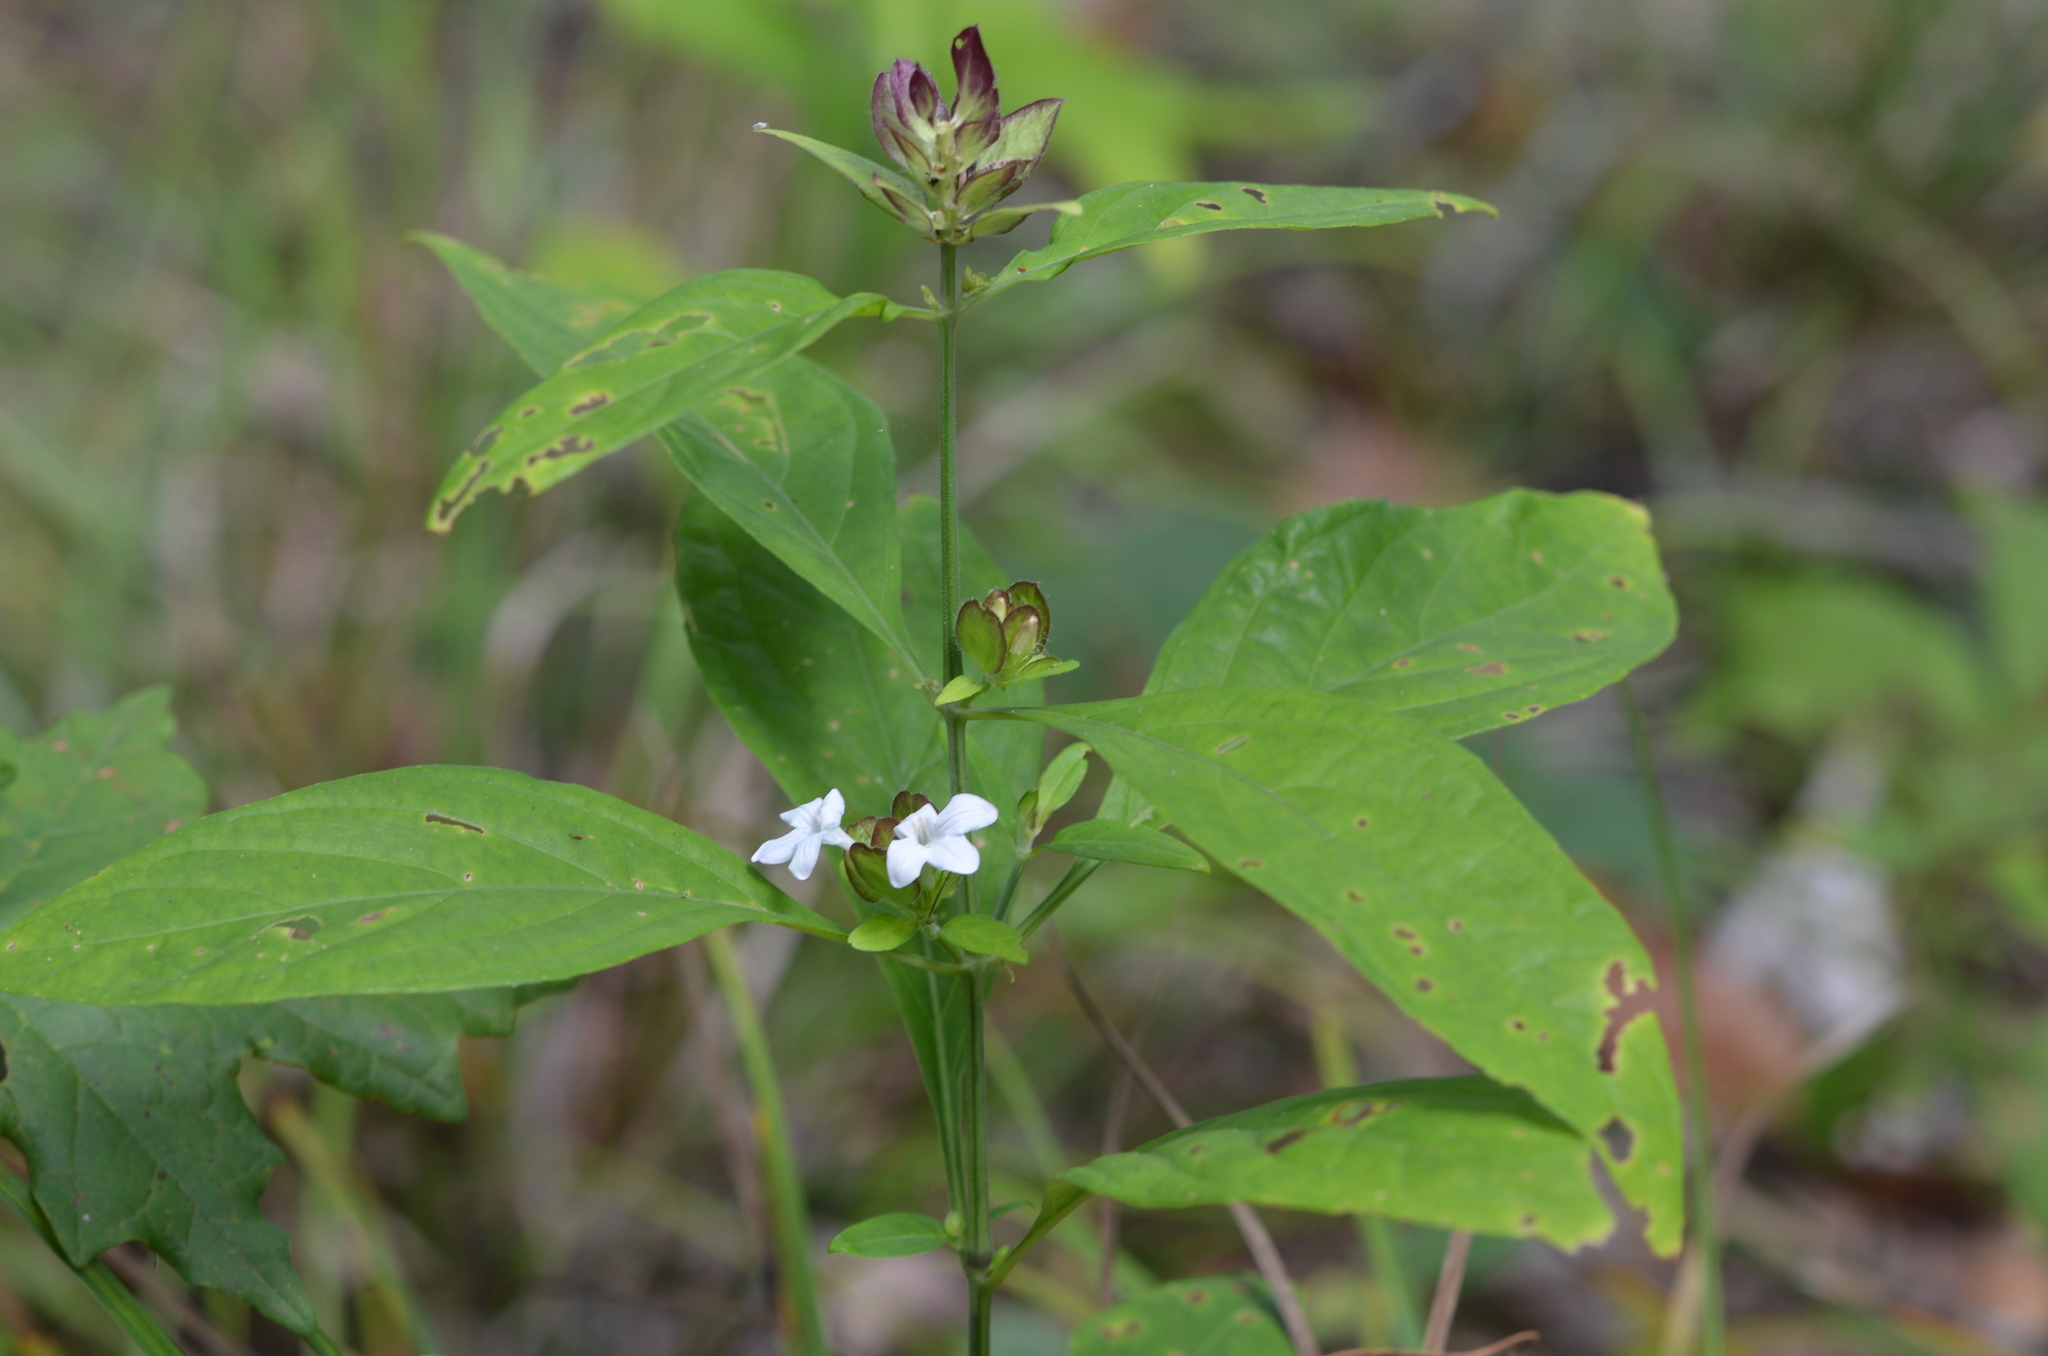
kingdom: Plantae
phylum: Tracheophyta
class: Magnoliopsida
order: Lamiales
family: Acanthaceae
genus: Yeatesia
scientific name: Yeatesia viridiflora
